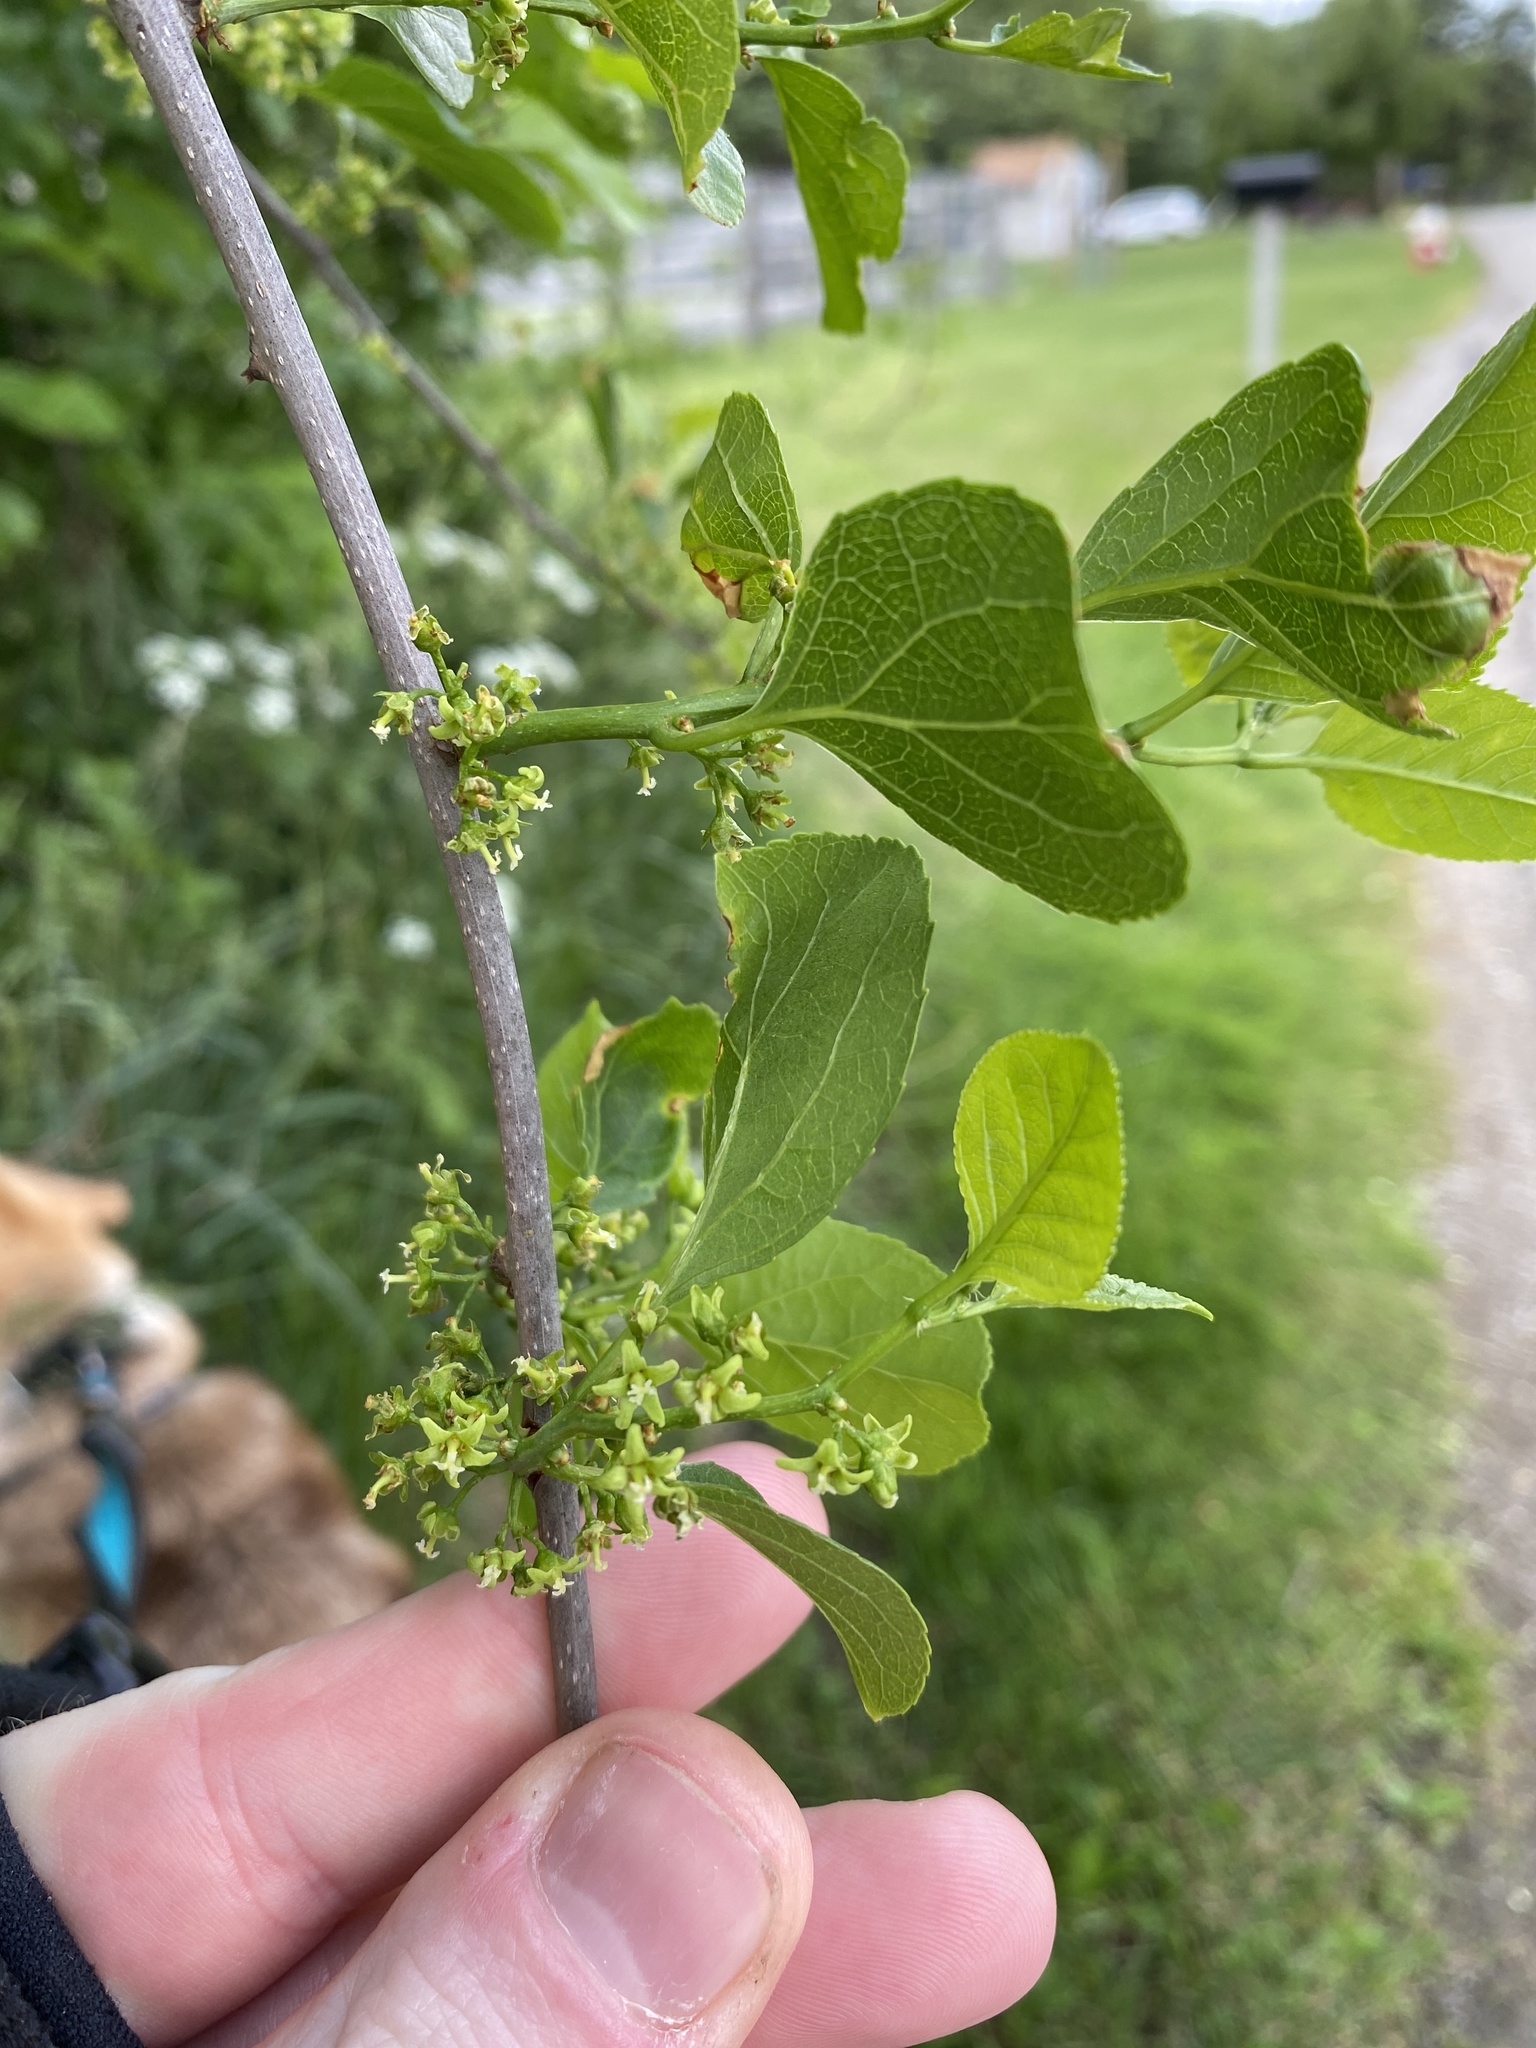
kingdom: Plantae
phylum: Tracheophyta
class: Magnoliopsida
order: Celastrales
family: Celastraceae
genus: Celastrus
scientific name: Celastrus orbiculatus
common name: Oriental bittersweet
